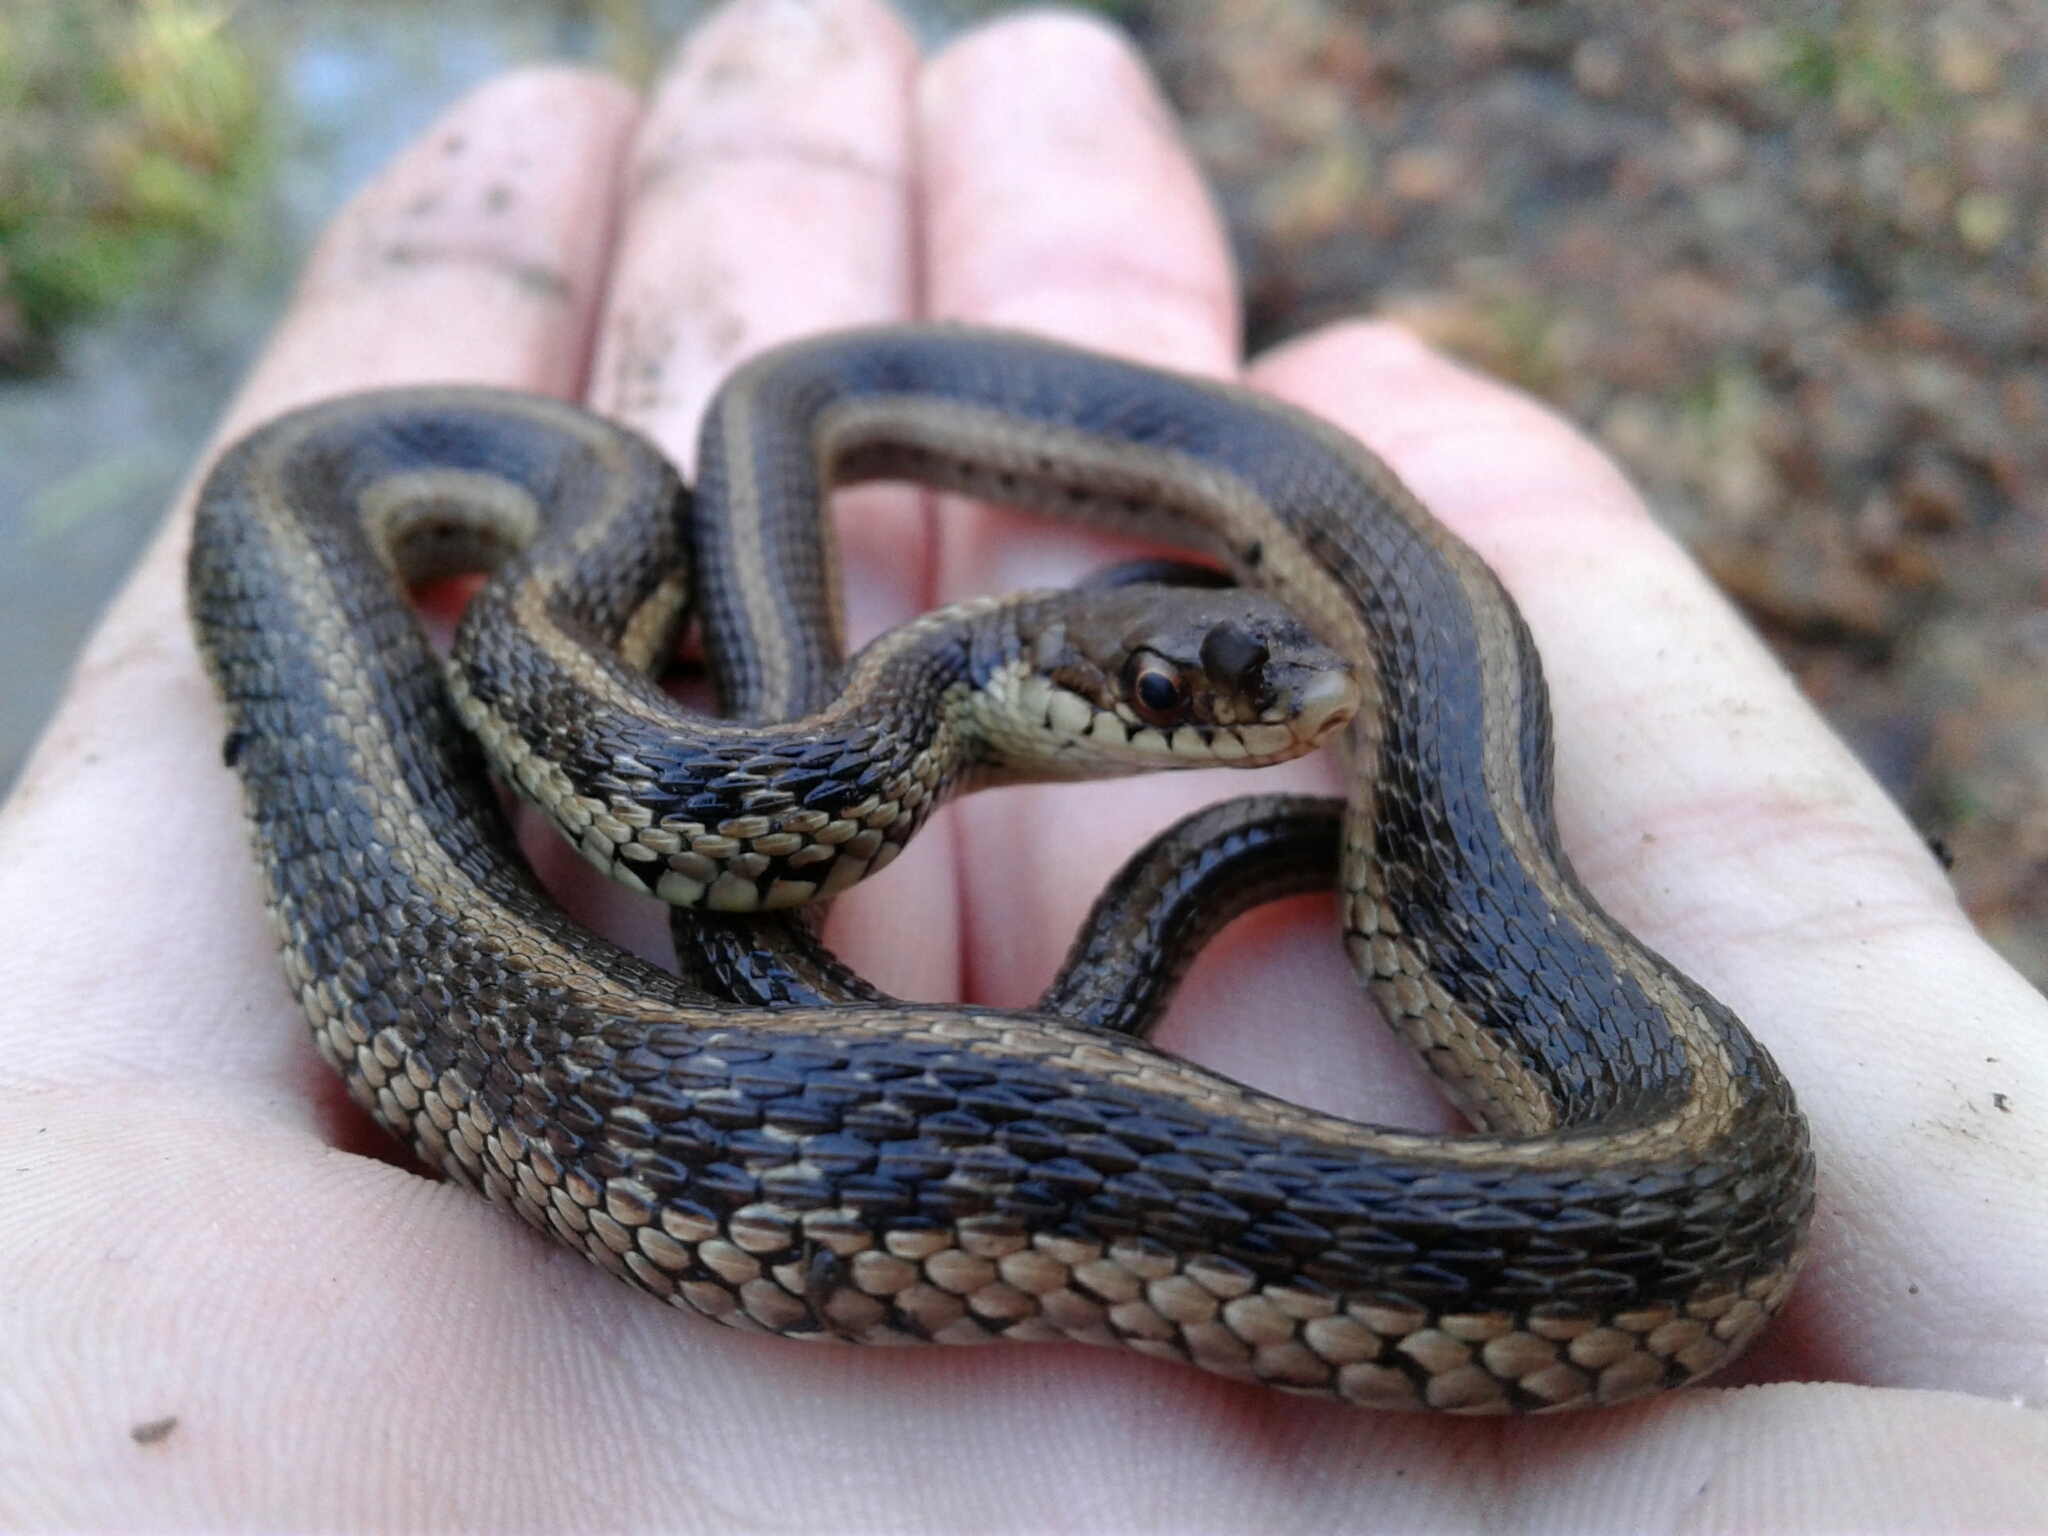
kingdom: Animalia
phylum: Chordata
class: Squamata
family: Colubridae
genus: Thamnophis
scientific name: Thamnophis sirtalis
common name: Common garter snake
